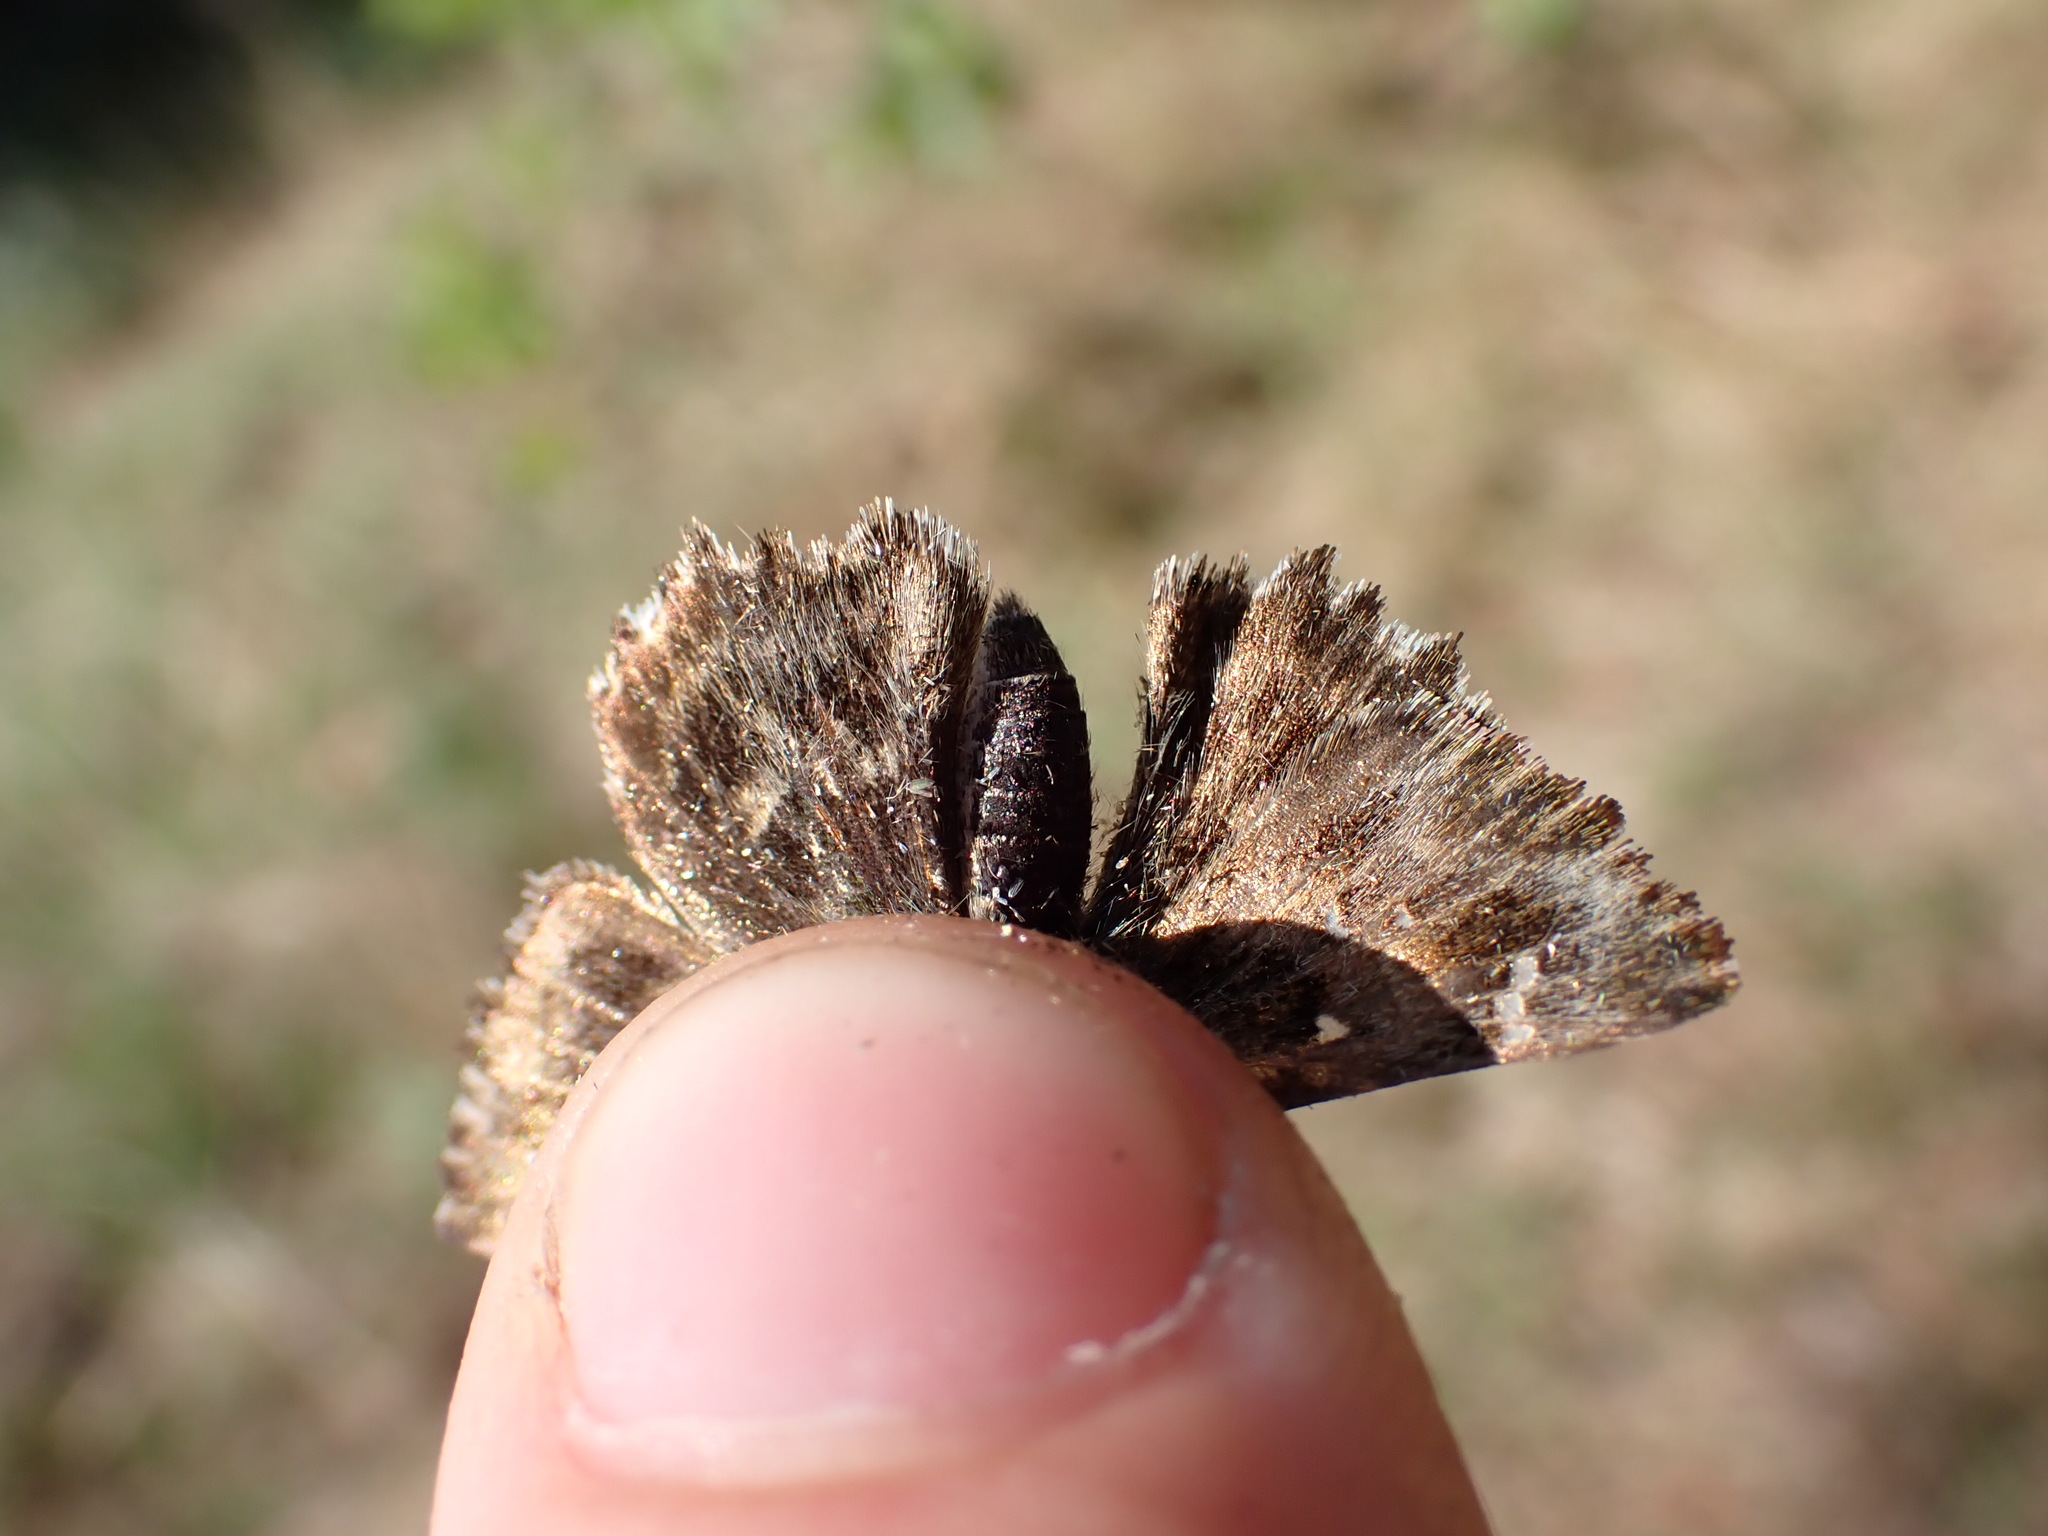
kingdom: Animalia
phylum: Arthropoda
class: Insecta
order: Lepidoptera
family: Hesperiidae
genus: Carcharodus
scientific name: Carcharodus alceae
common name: Mallow skipper
